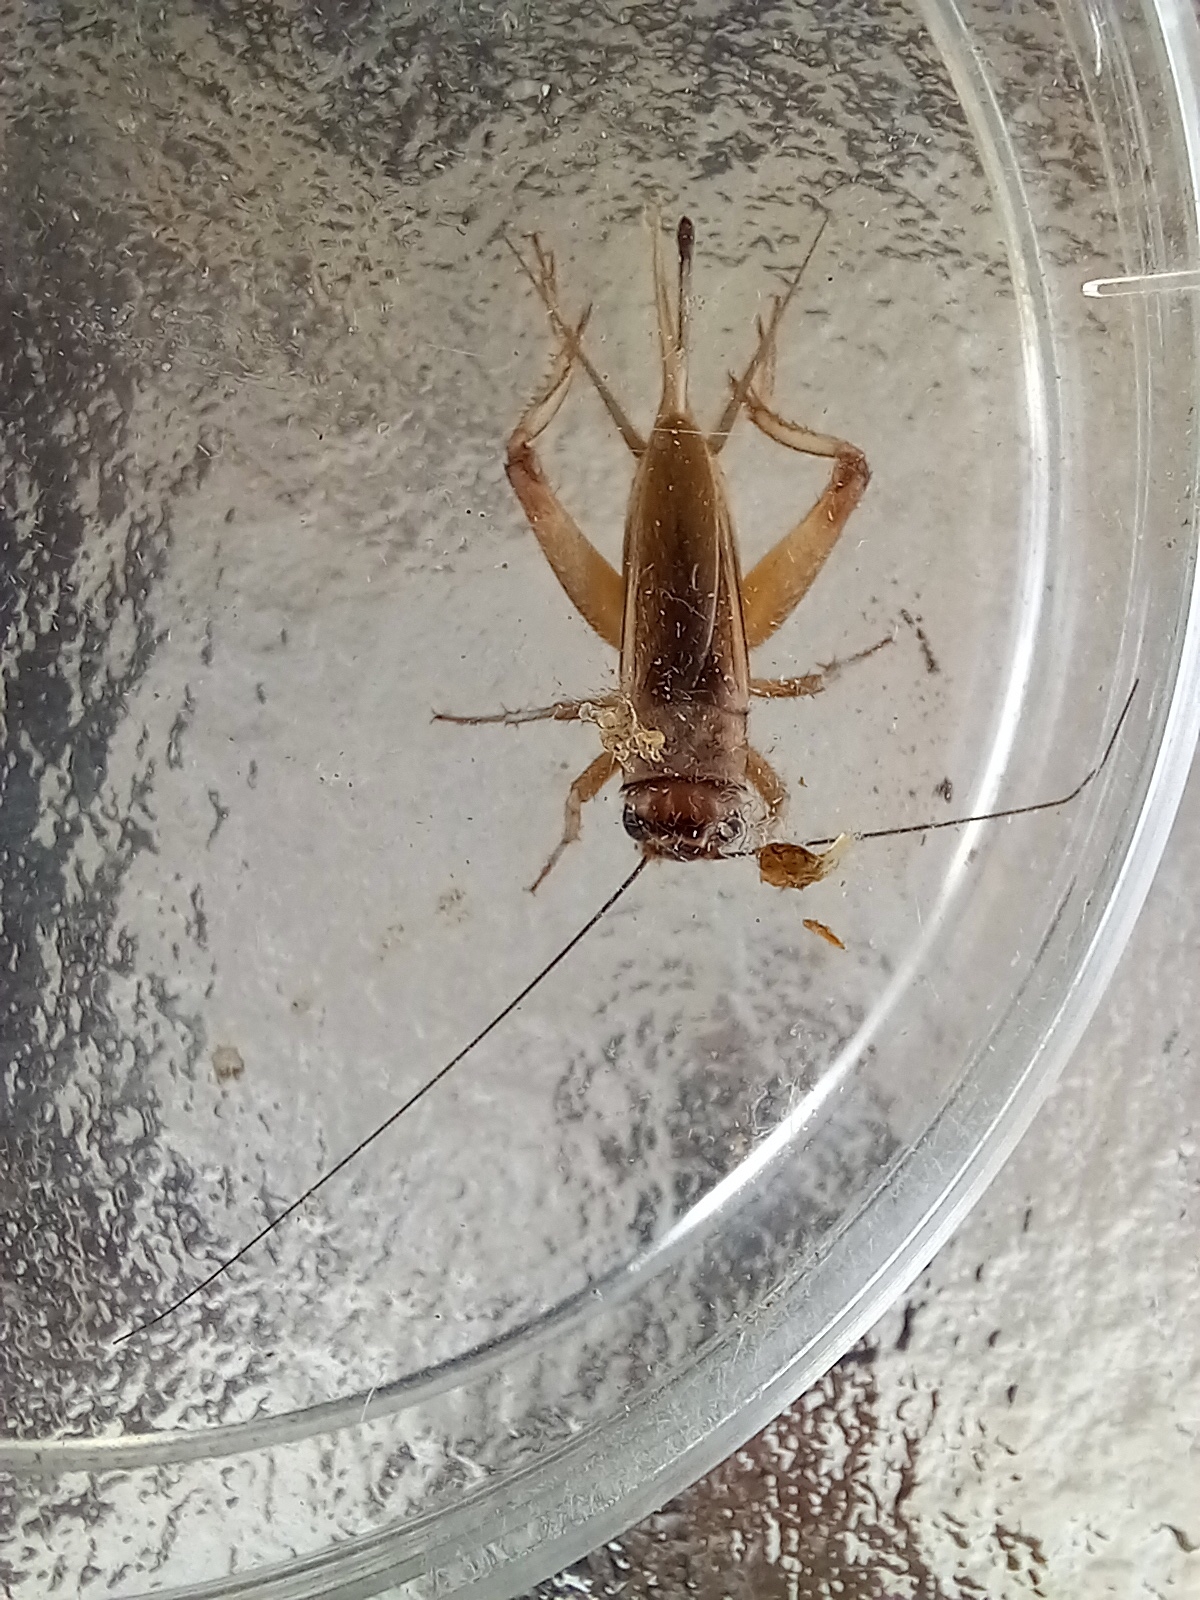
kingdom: Animalia
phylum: Arthropoda
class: Insecta
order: Orthoptera
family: Gryllidae
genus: Acheta
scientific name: Acheta hispanicus
